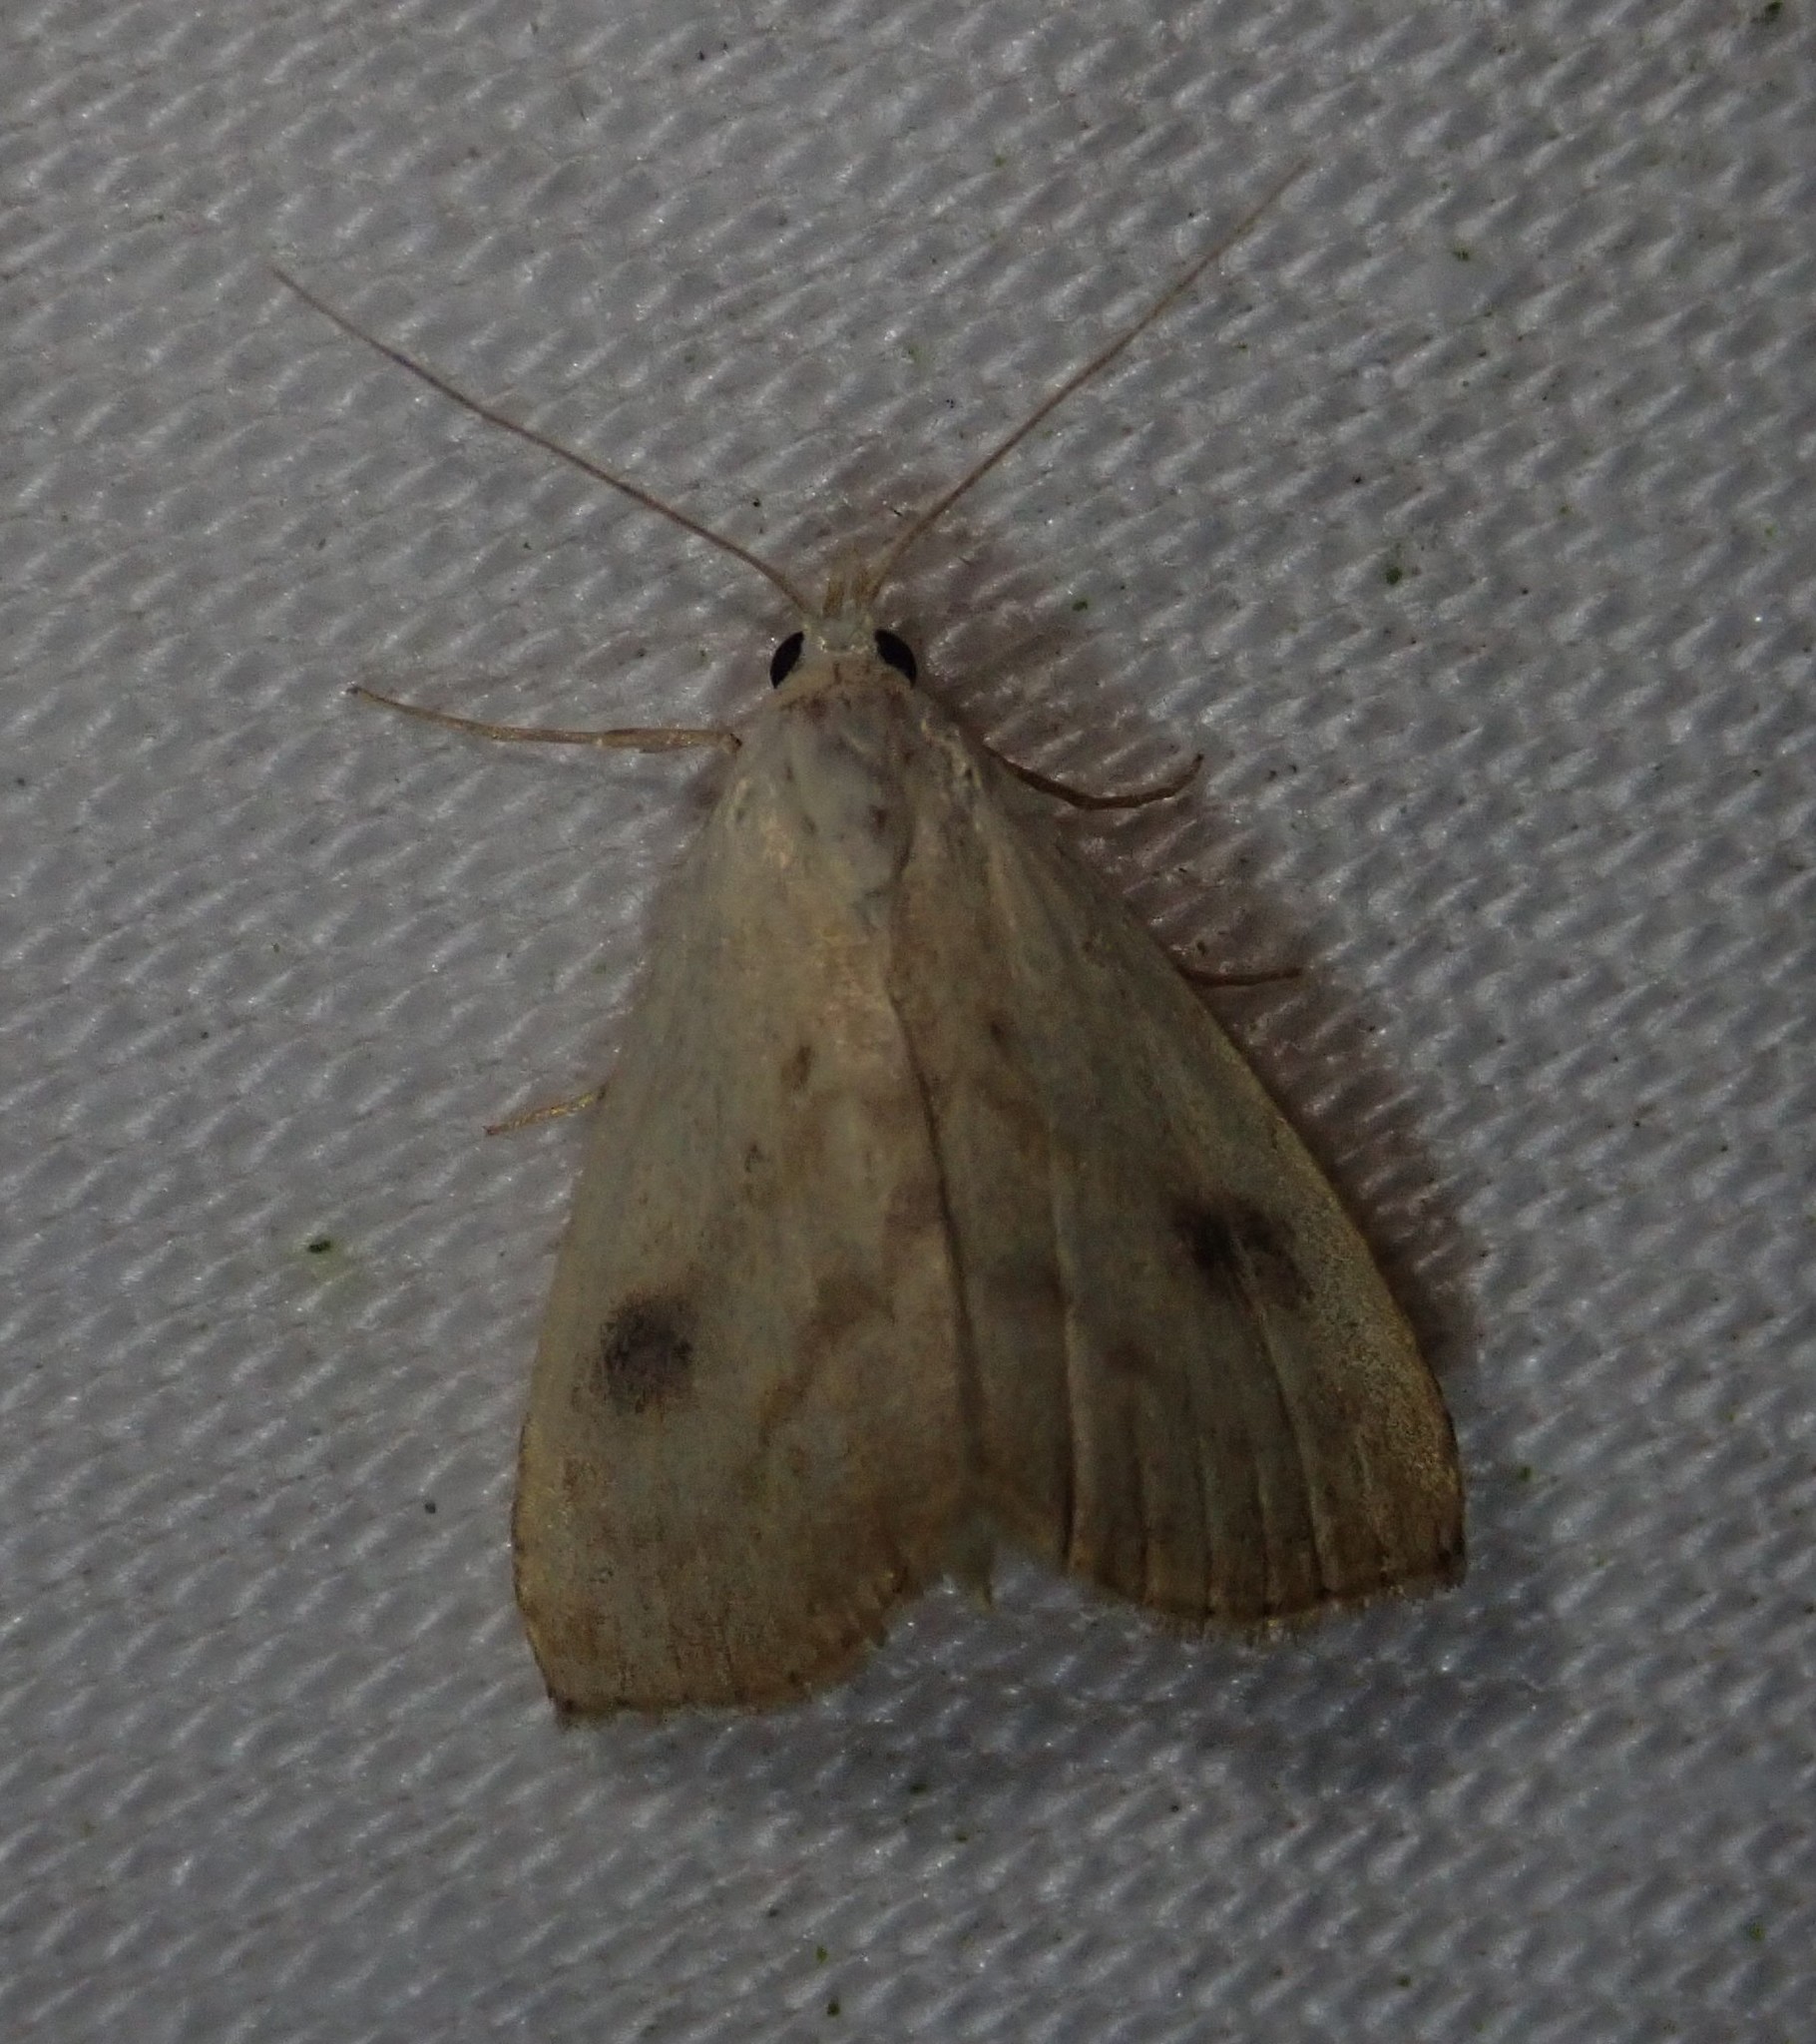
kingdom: Animalia
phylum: Arthropoda
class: Insecta
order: Lepidoptera
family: Erebidae
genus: Rivula
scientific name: Rivula sericealis
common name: Straw dot
